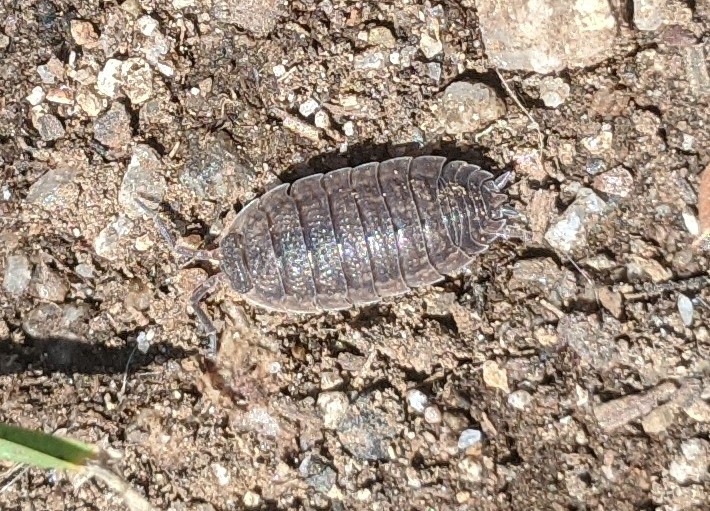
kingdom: Animalia
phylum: Arthropoda
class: Malacostraca
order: Isopoda
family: Porcellionidae
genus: Porcellio
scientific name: Porcellio scaber
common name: Common rough woodlouse
